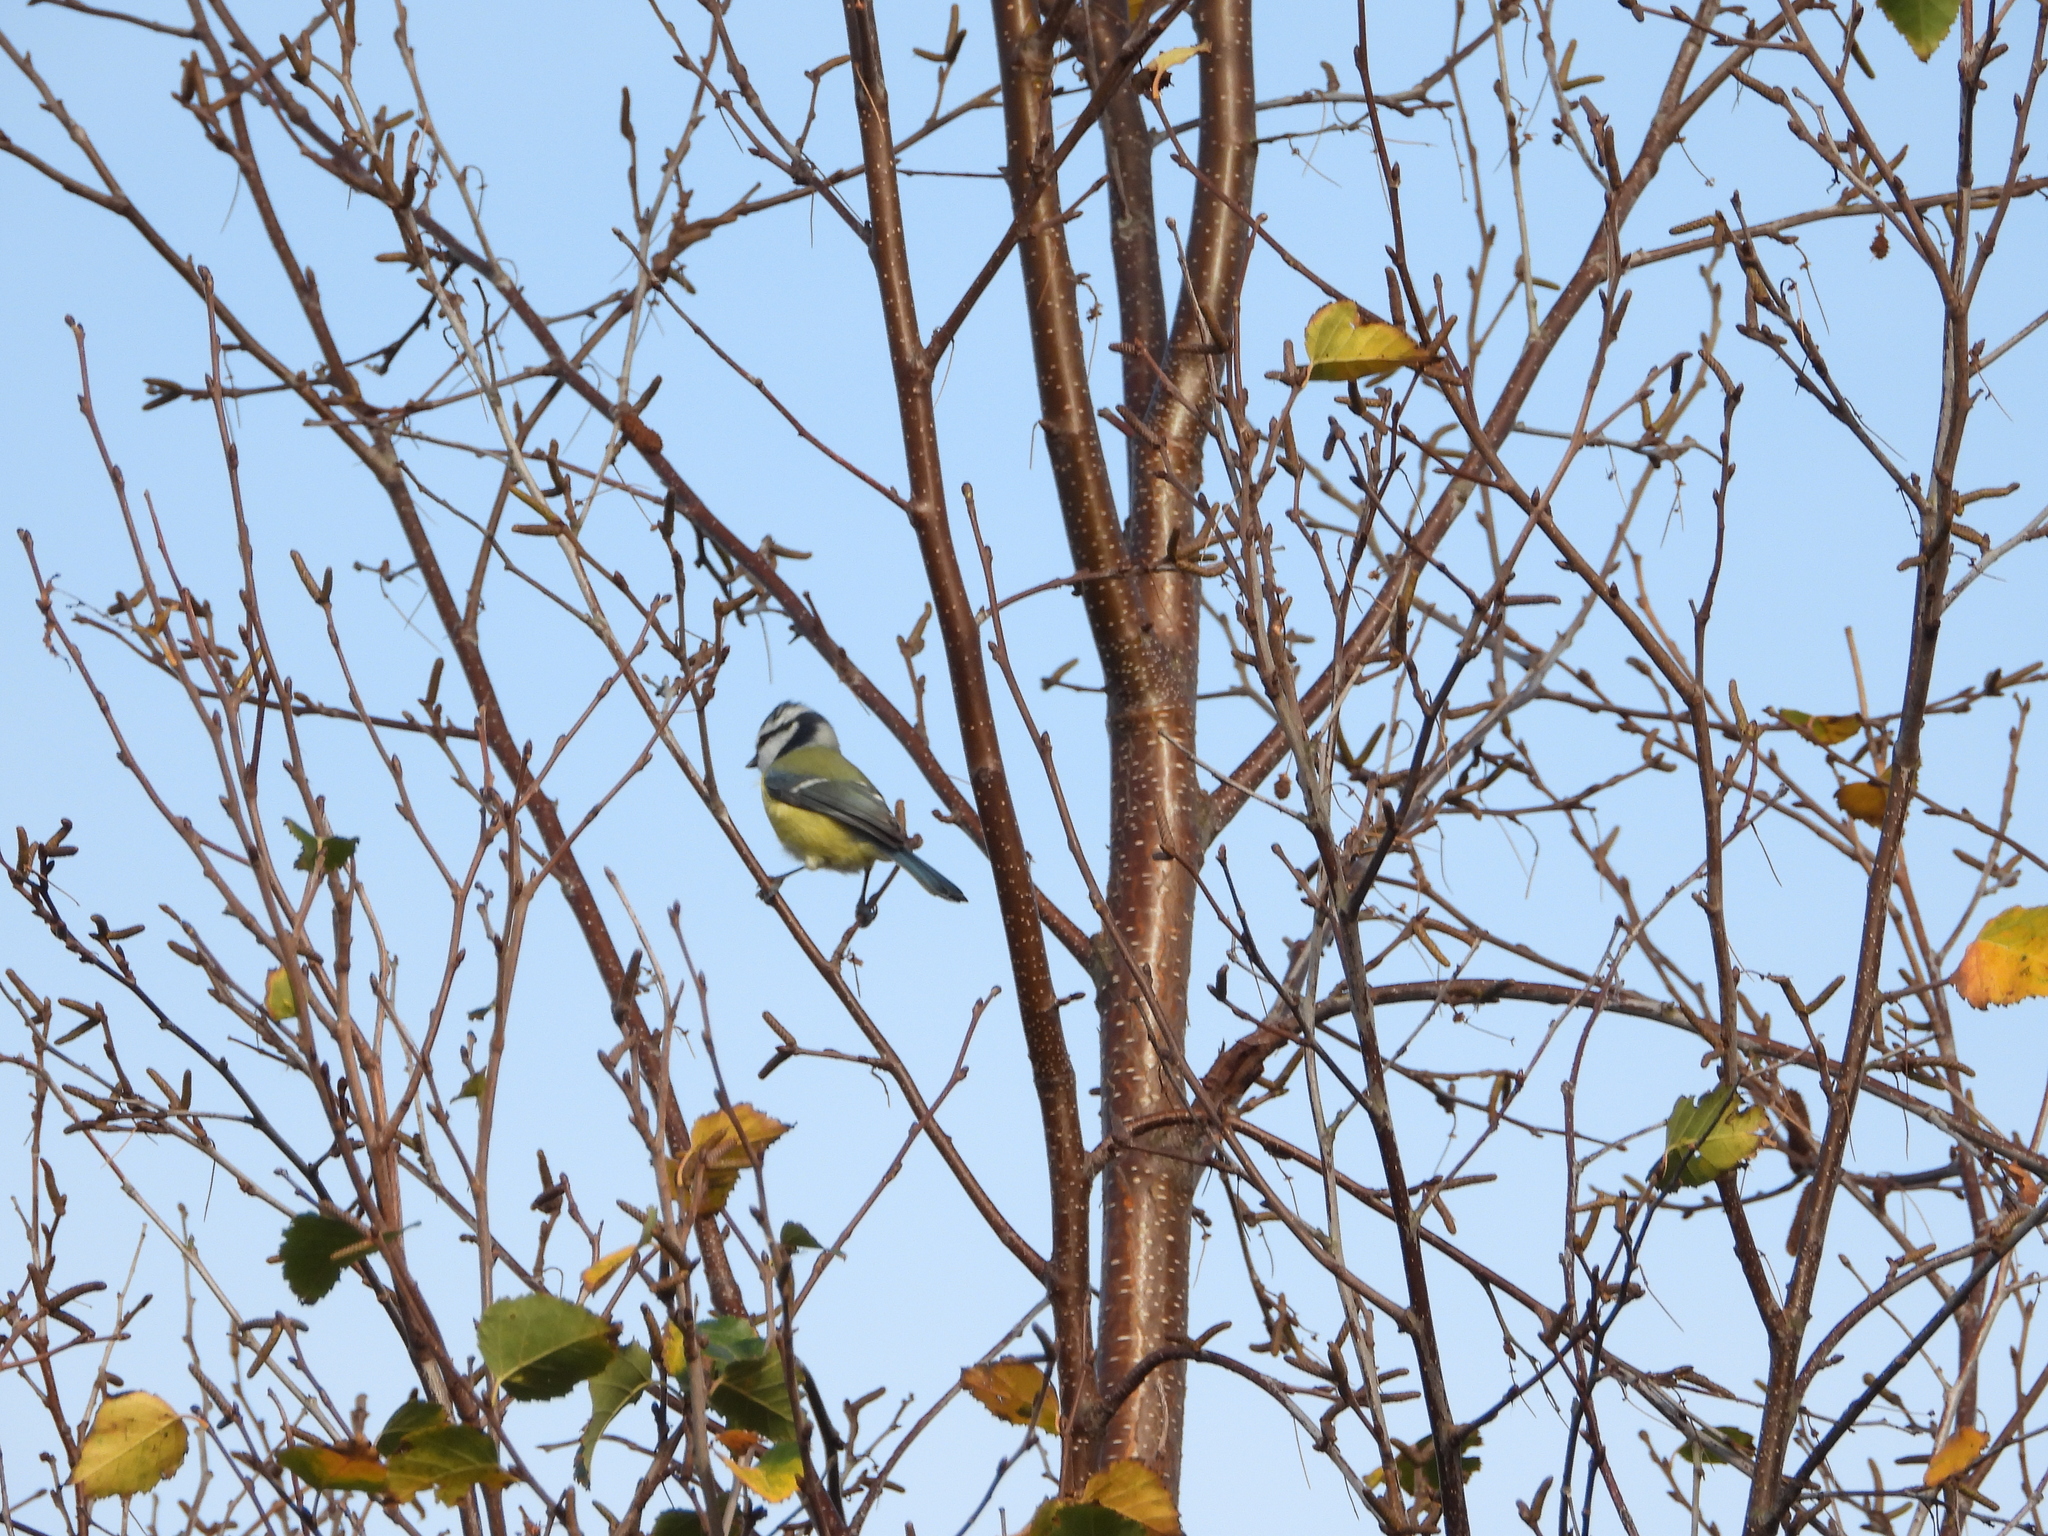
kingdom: Animalia
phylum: Chordata
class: Aves
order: Passeriformes
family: Paridae
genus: Cyanistes
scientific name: Cyanistes caeruleus
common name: Eurasian blue tit
